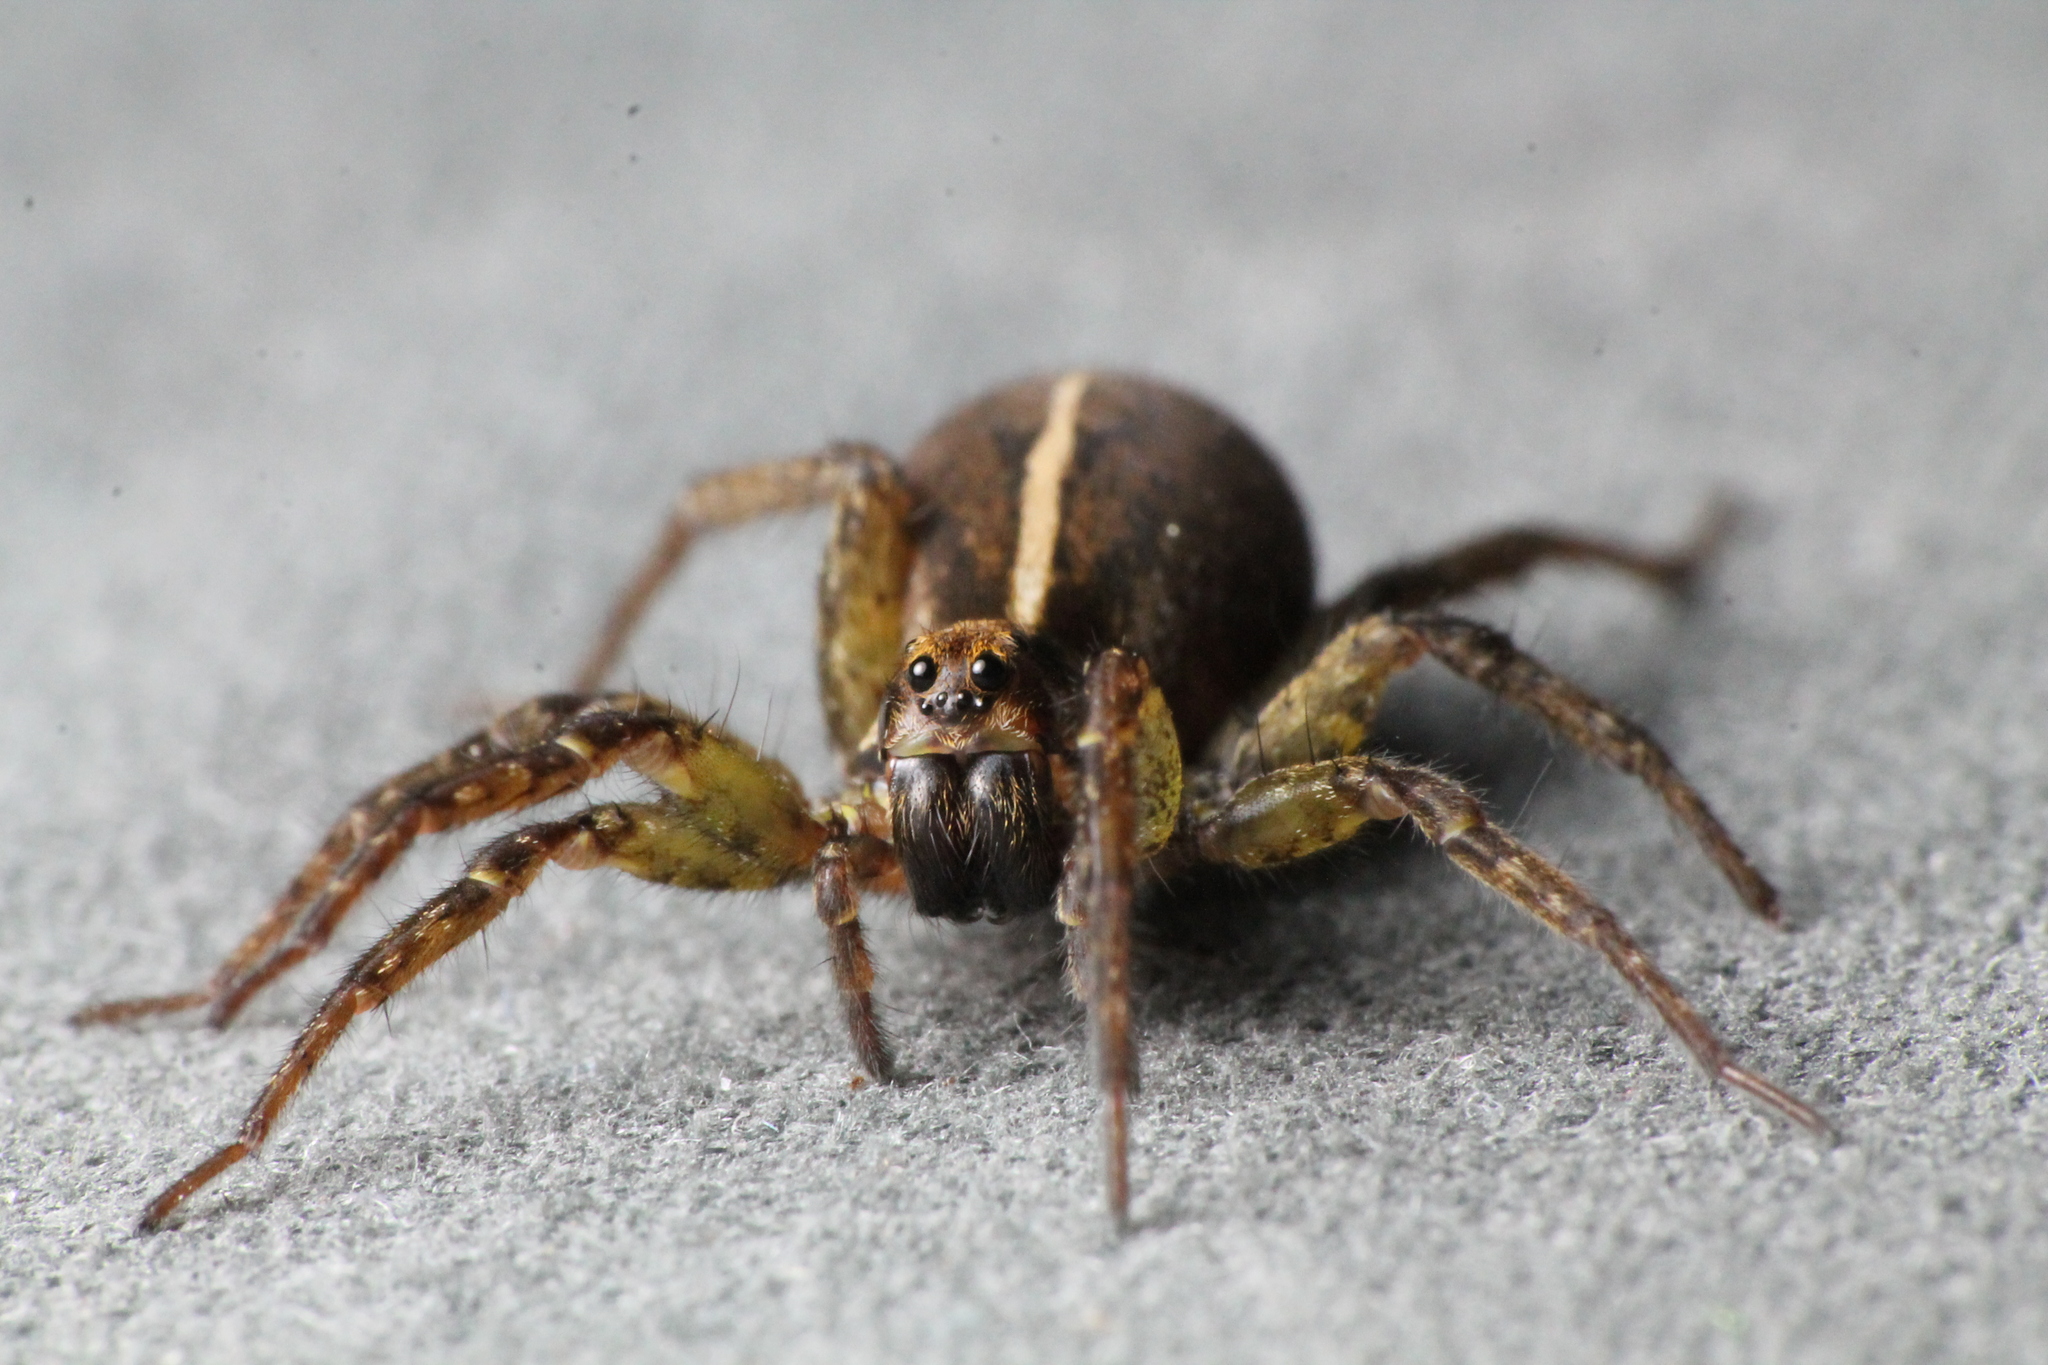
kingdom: Animalia
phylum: Arthropoda
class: Arachnida
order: Araneae
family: Lycosidae
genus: Anoteropsis
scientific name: Anoteropsis hilaris
